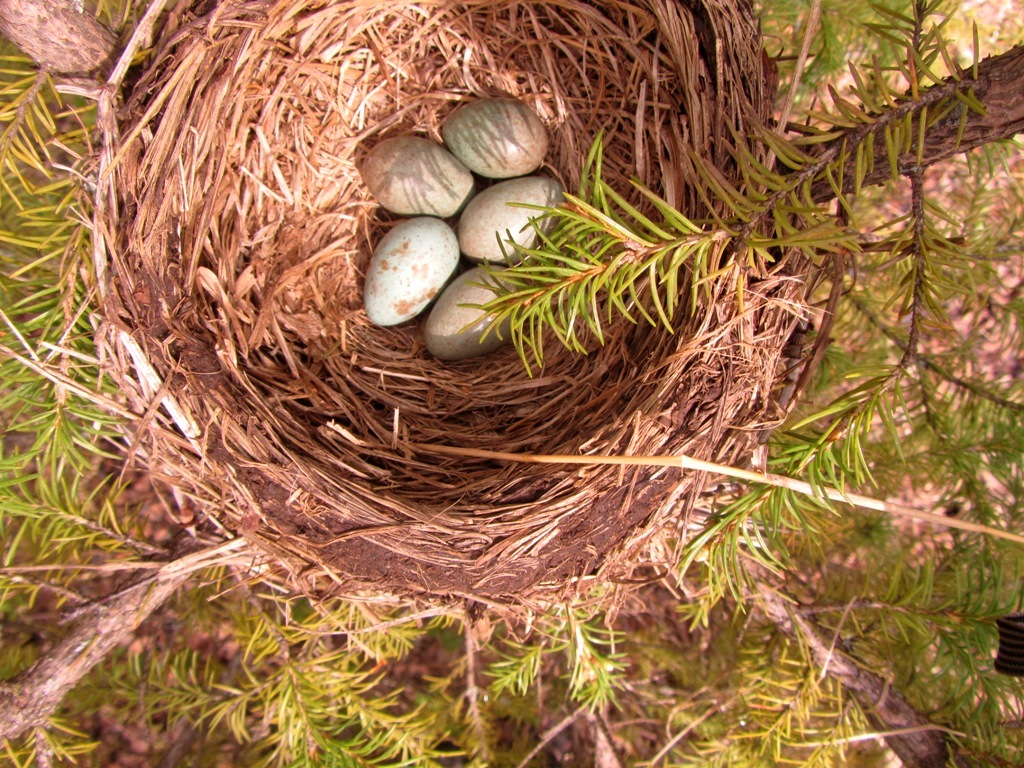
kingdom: Animalia
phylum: Chordata
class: Aves
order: Passeriformes
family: Turdidae
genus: Turdus
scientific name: Turdus pilaris
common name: Fieldfare
